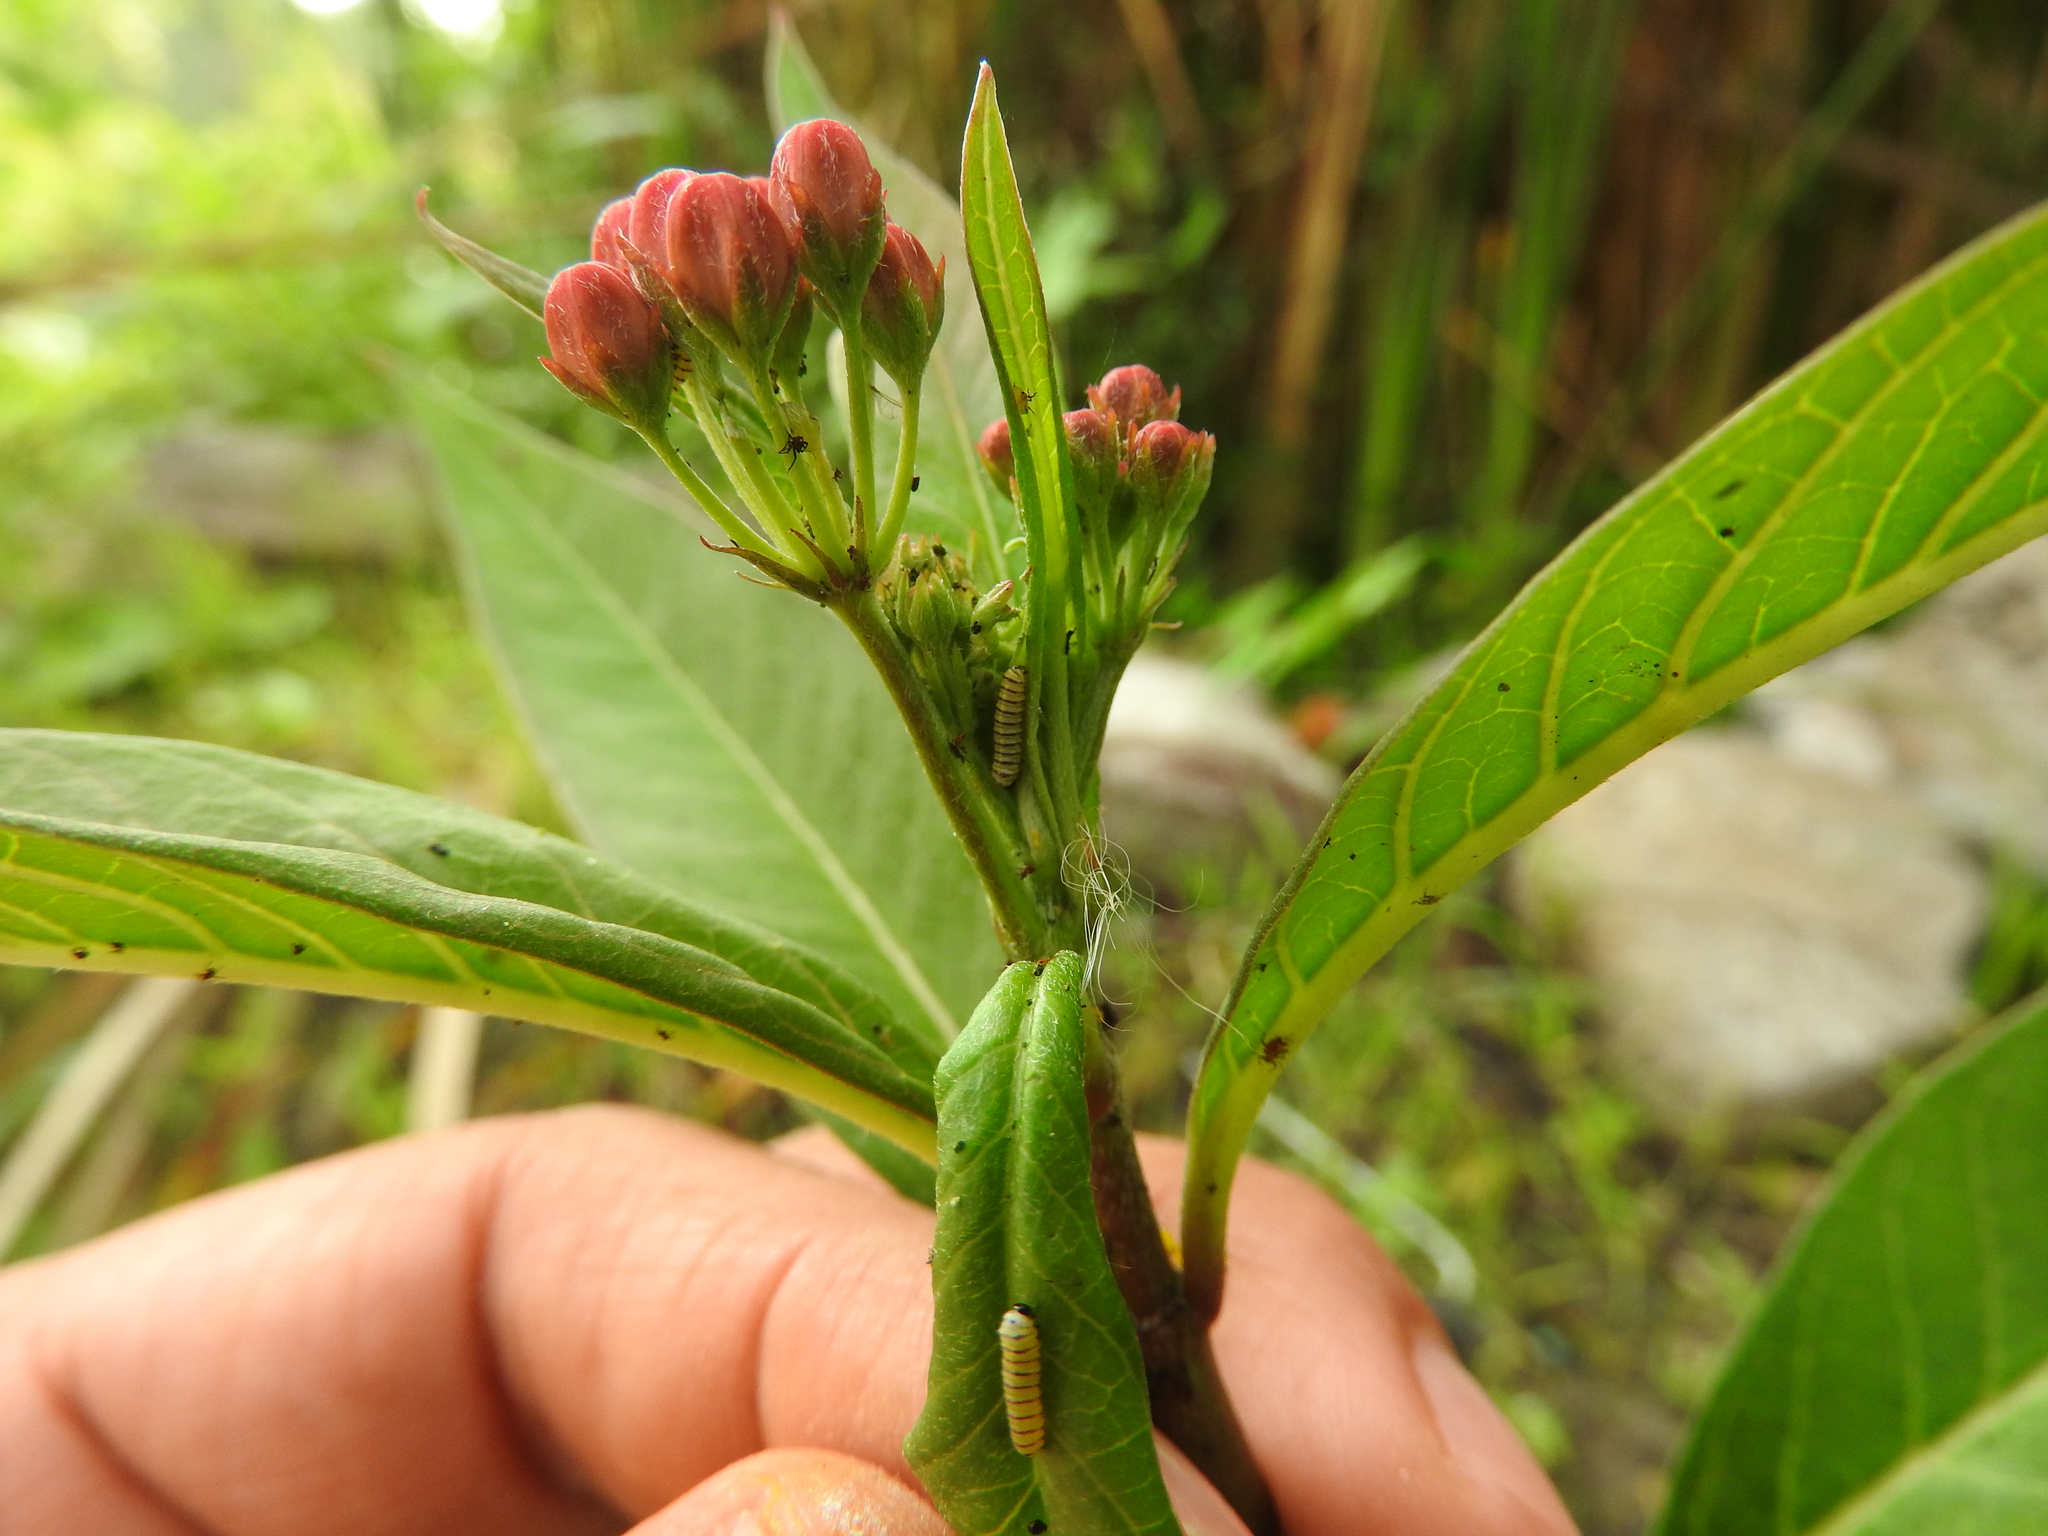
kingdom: Animalia
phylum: Arthropoda
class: Insecta
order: Lepidoptera
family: Nymphalidae
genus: Danaus
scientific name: Danaus plexippus
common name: Monarch
